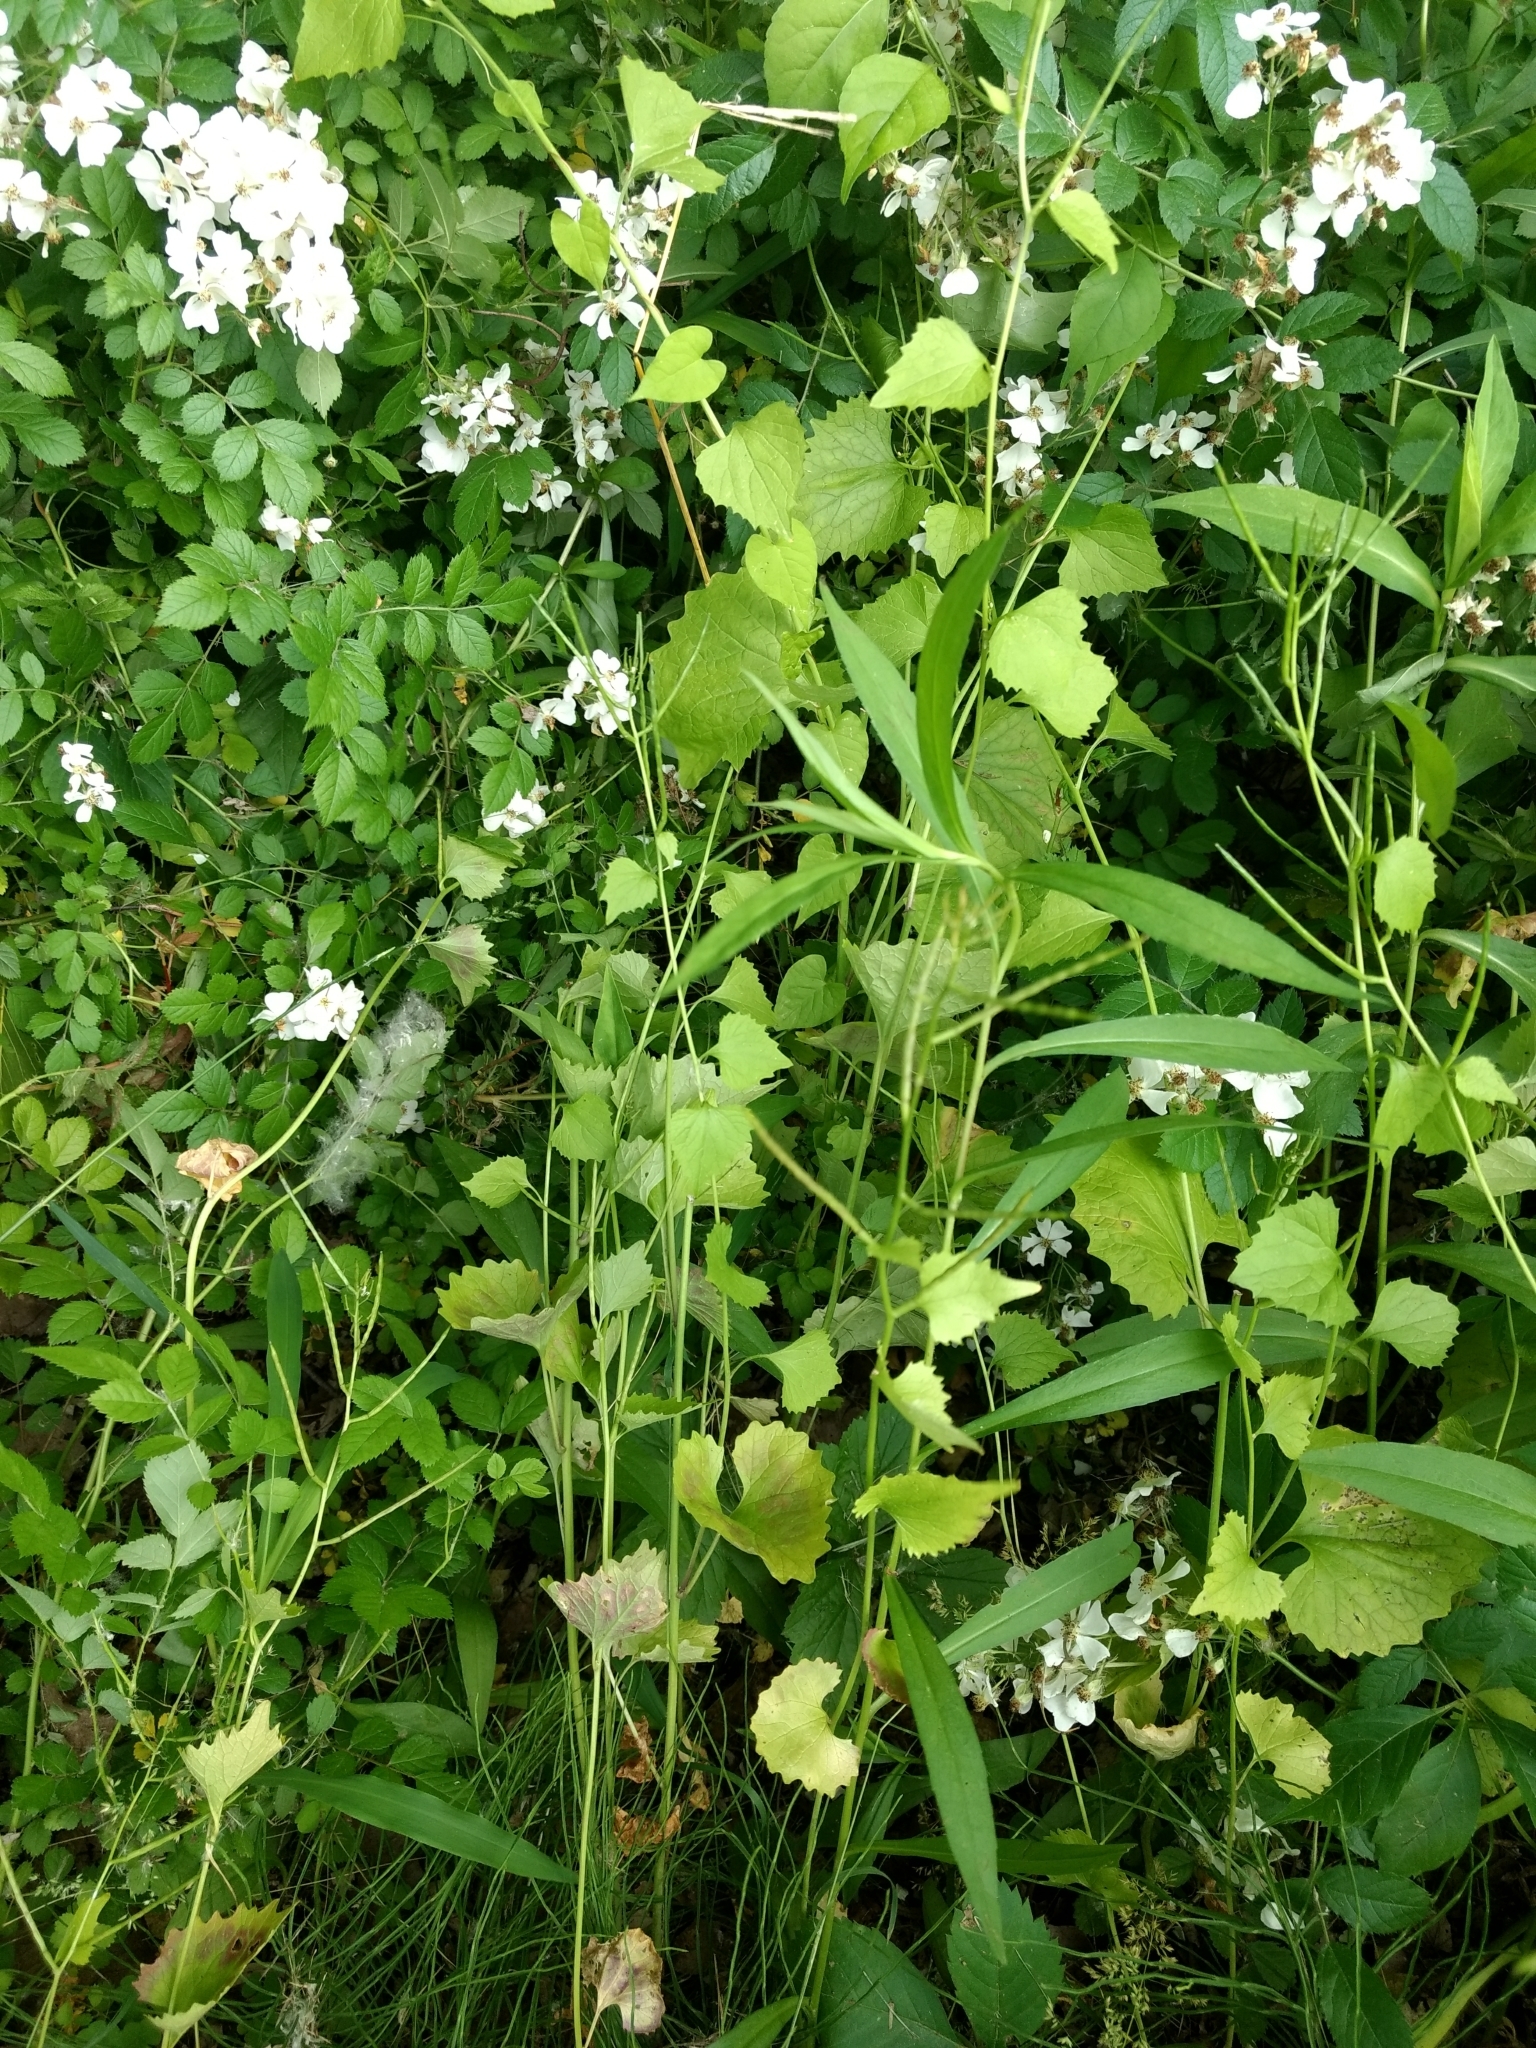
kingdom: Plantae
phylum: Tracheophyta
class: Magnoliopsida
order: Brassicales
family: Brassicaceae
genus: Alliaria
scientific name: Alliaria petiolata
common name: Garlic mustard
